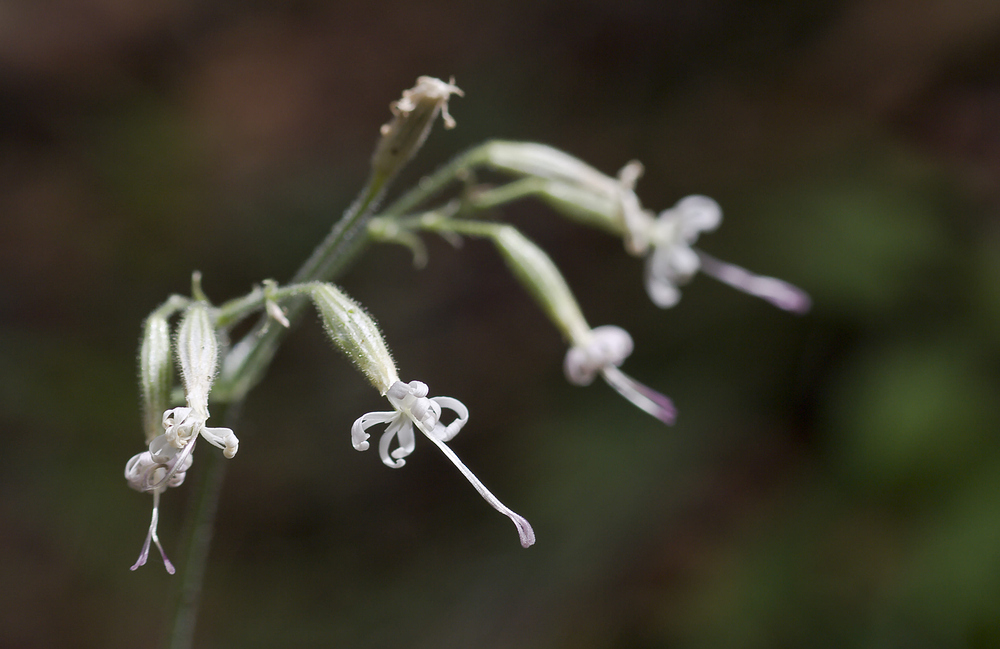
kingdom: Plantae
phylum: Tracheophyta
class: Magnoliopsida
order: Caryophyllales
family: Caryophyllaceae
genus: Silene
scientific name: Silene nutans
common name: Nottingham catchfly
